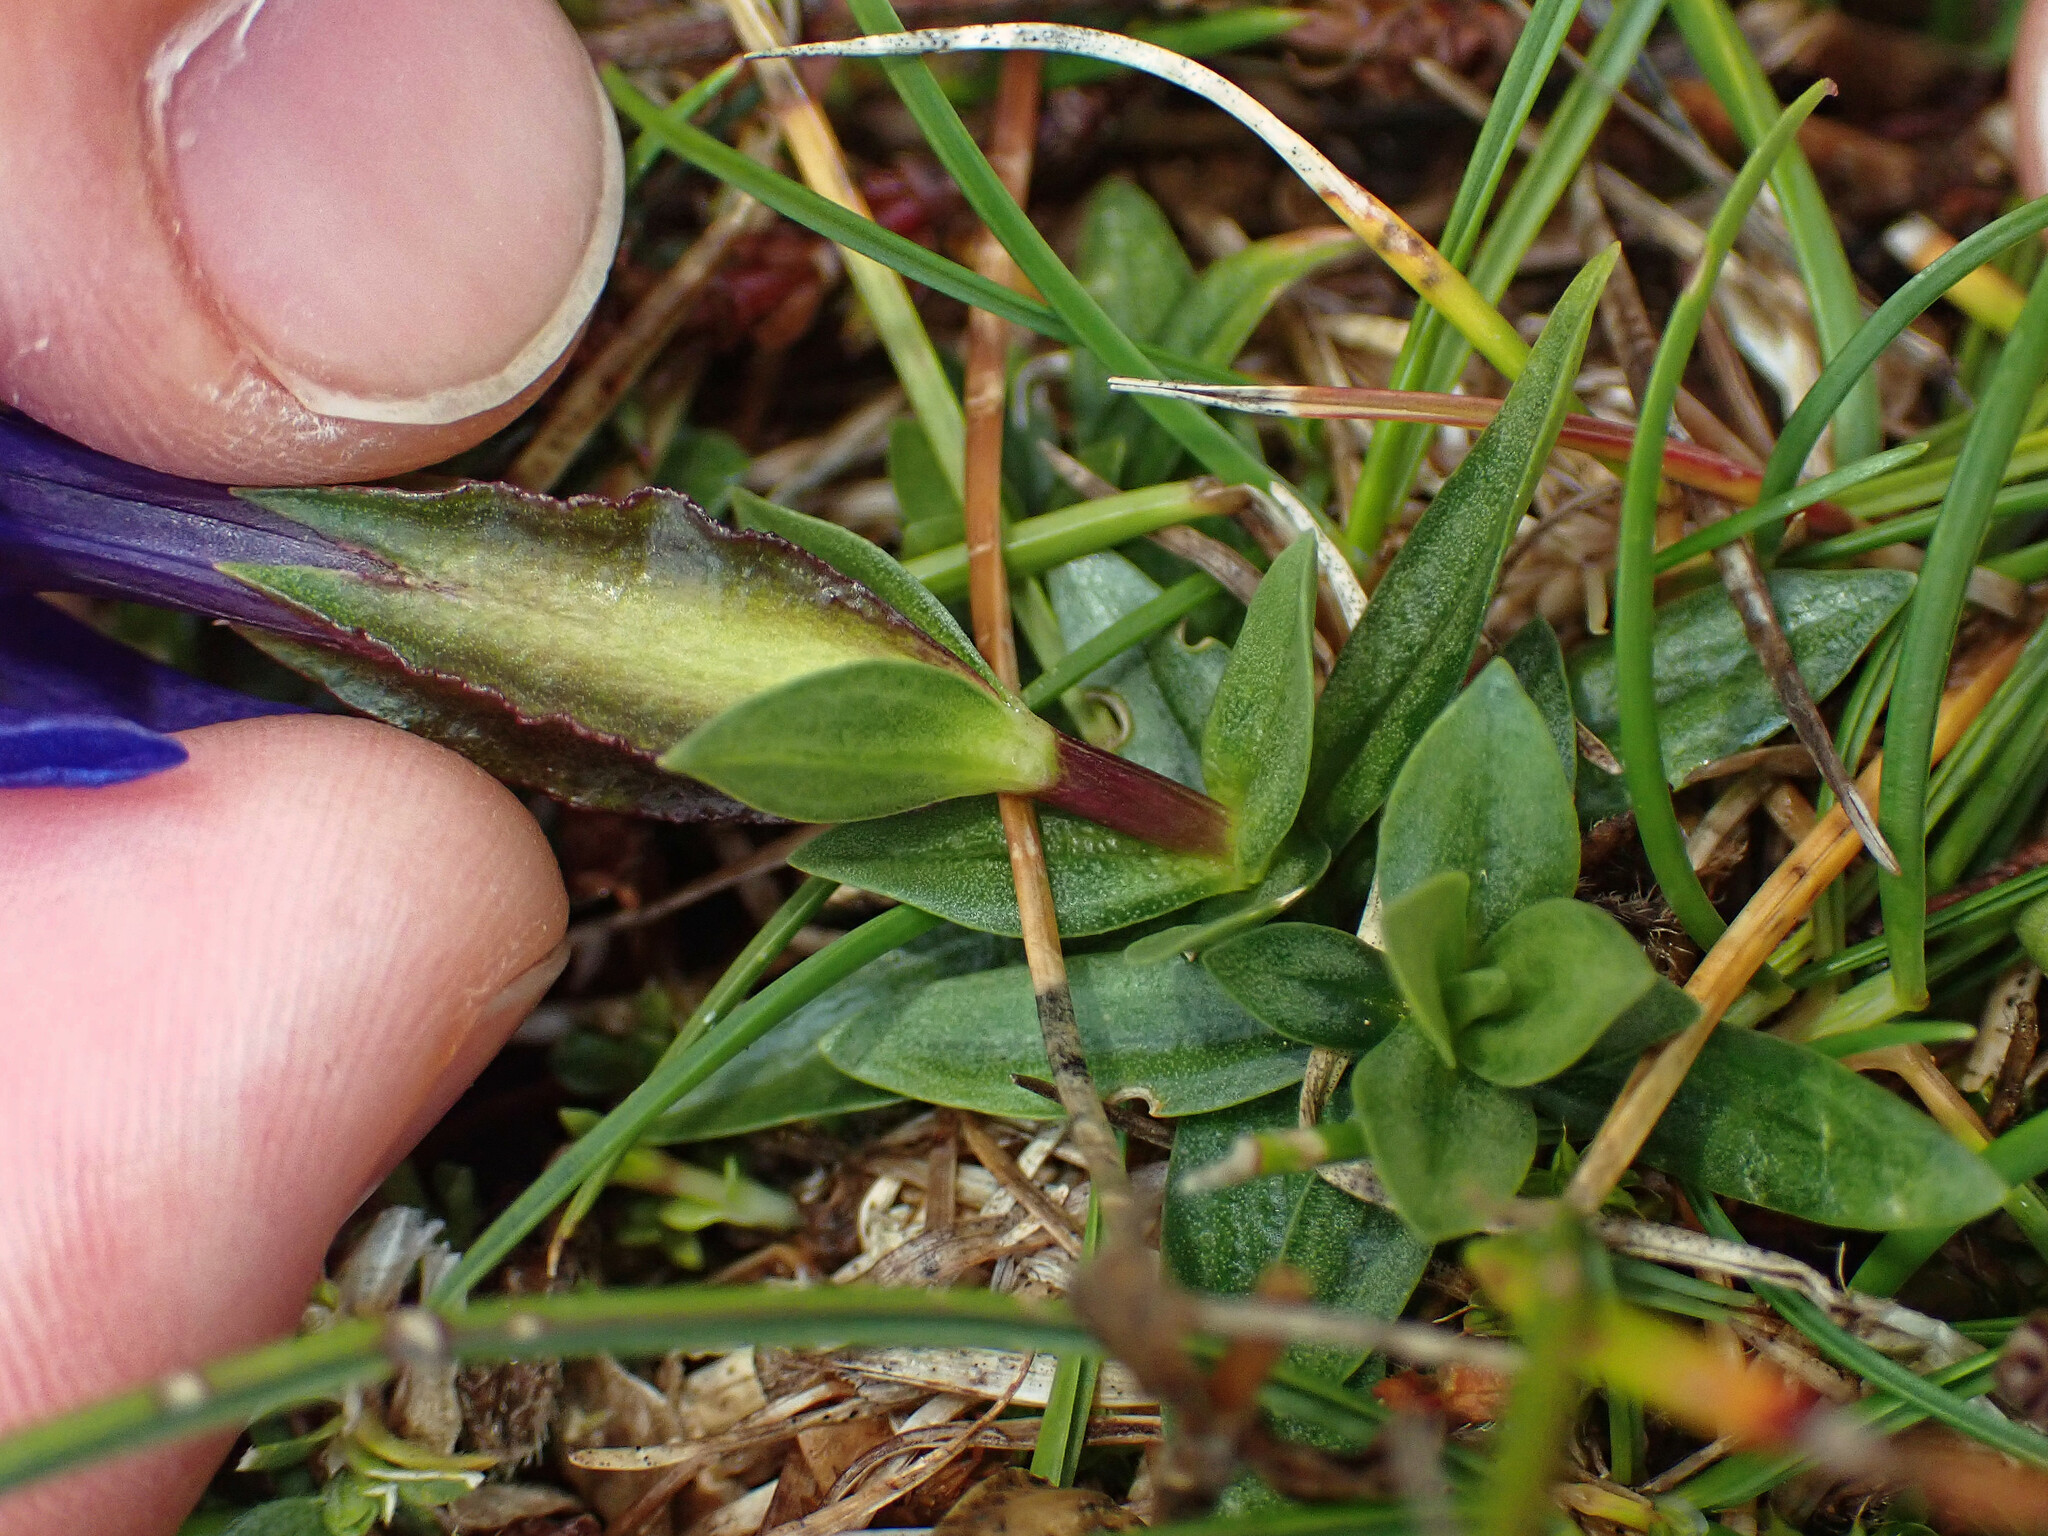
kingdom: Plantae
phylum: Tracheophyta
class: Magnoliopsida
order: Gentianales
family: Gentianaceae
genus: Gentiana
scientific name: Gentiana verna
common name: Spring gentian
